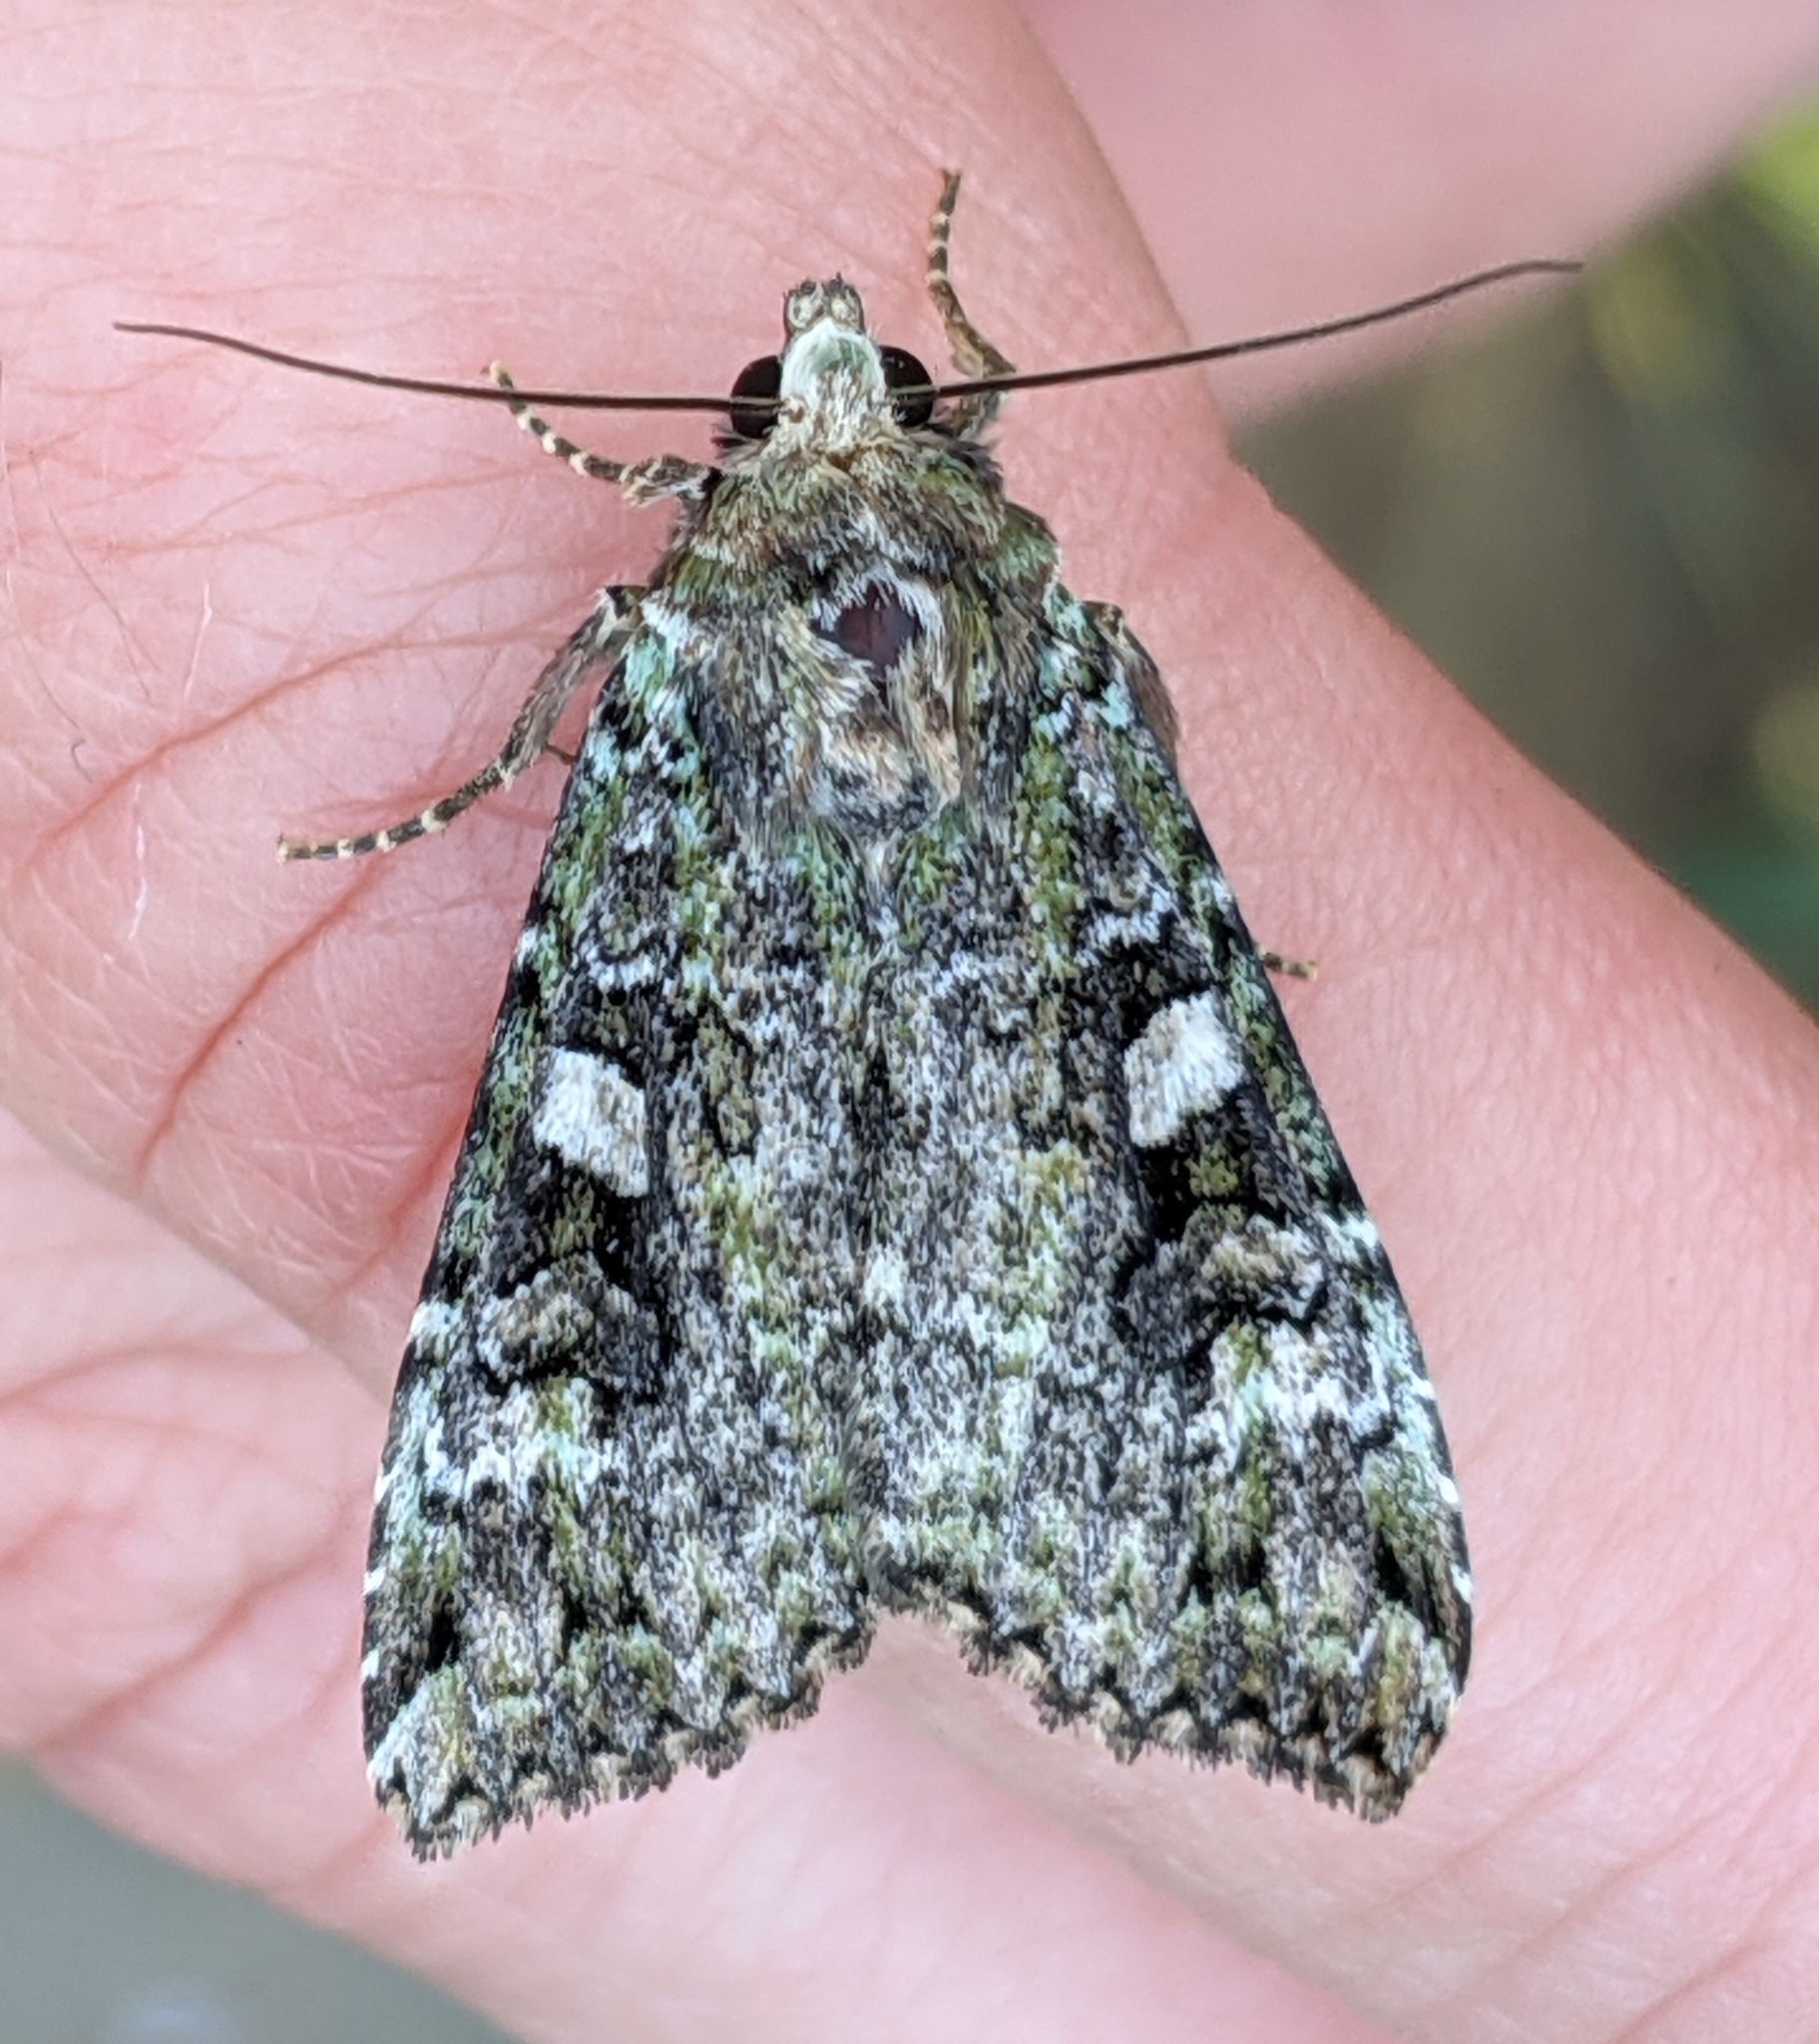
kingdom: Animalia
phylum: Arthropoda
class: Insecta
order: Lepidoptera
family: Noctuidae
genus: Anaplectoides
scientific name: Anaplectoides prasina
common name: Green arches
